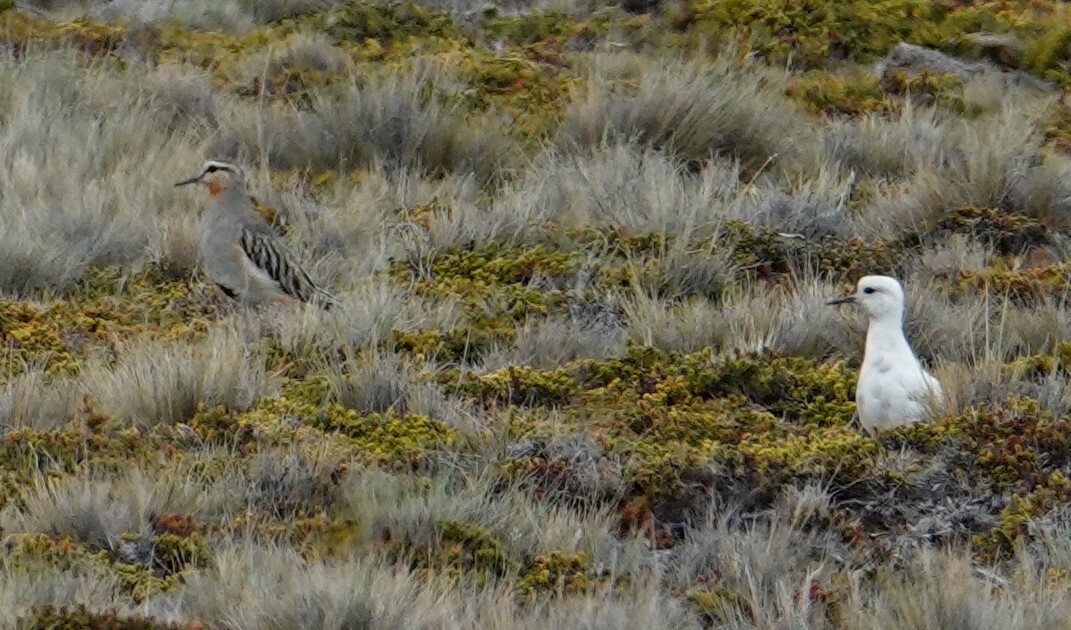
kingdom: Animalia
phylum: Chordata
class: Aves
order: Charadriiformes
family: Charadriidae
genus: Oreopholus
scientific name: Oreopholus ruficollis
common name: Tawny-throated dotterel
